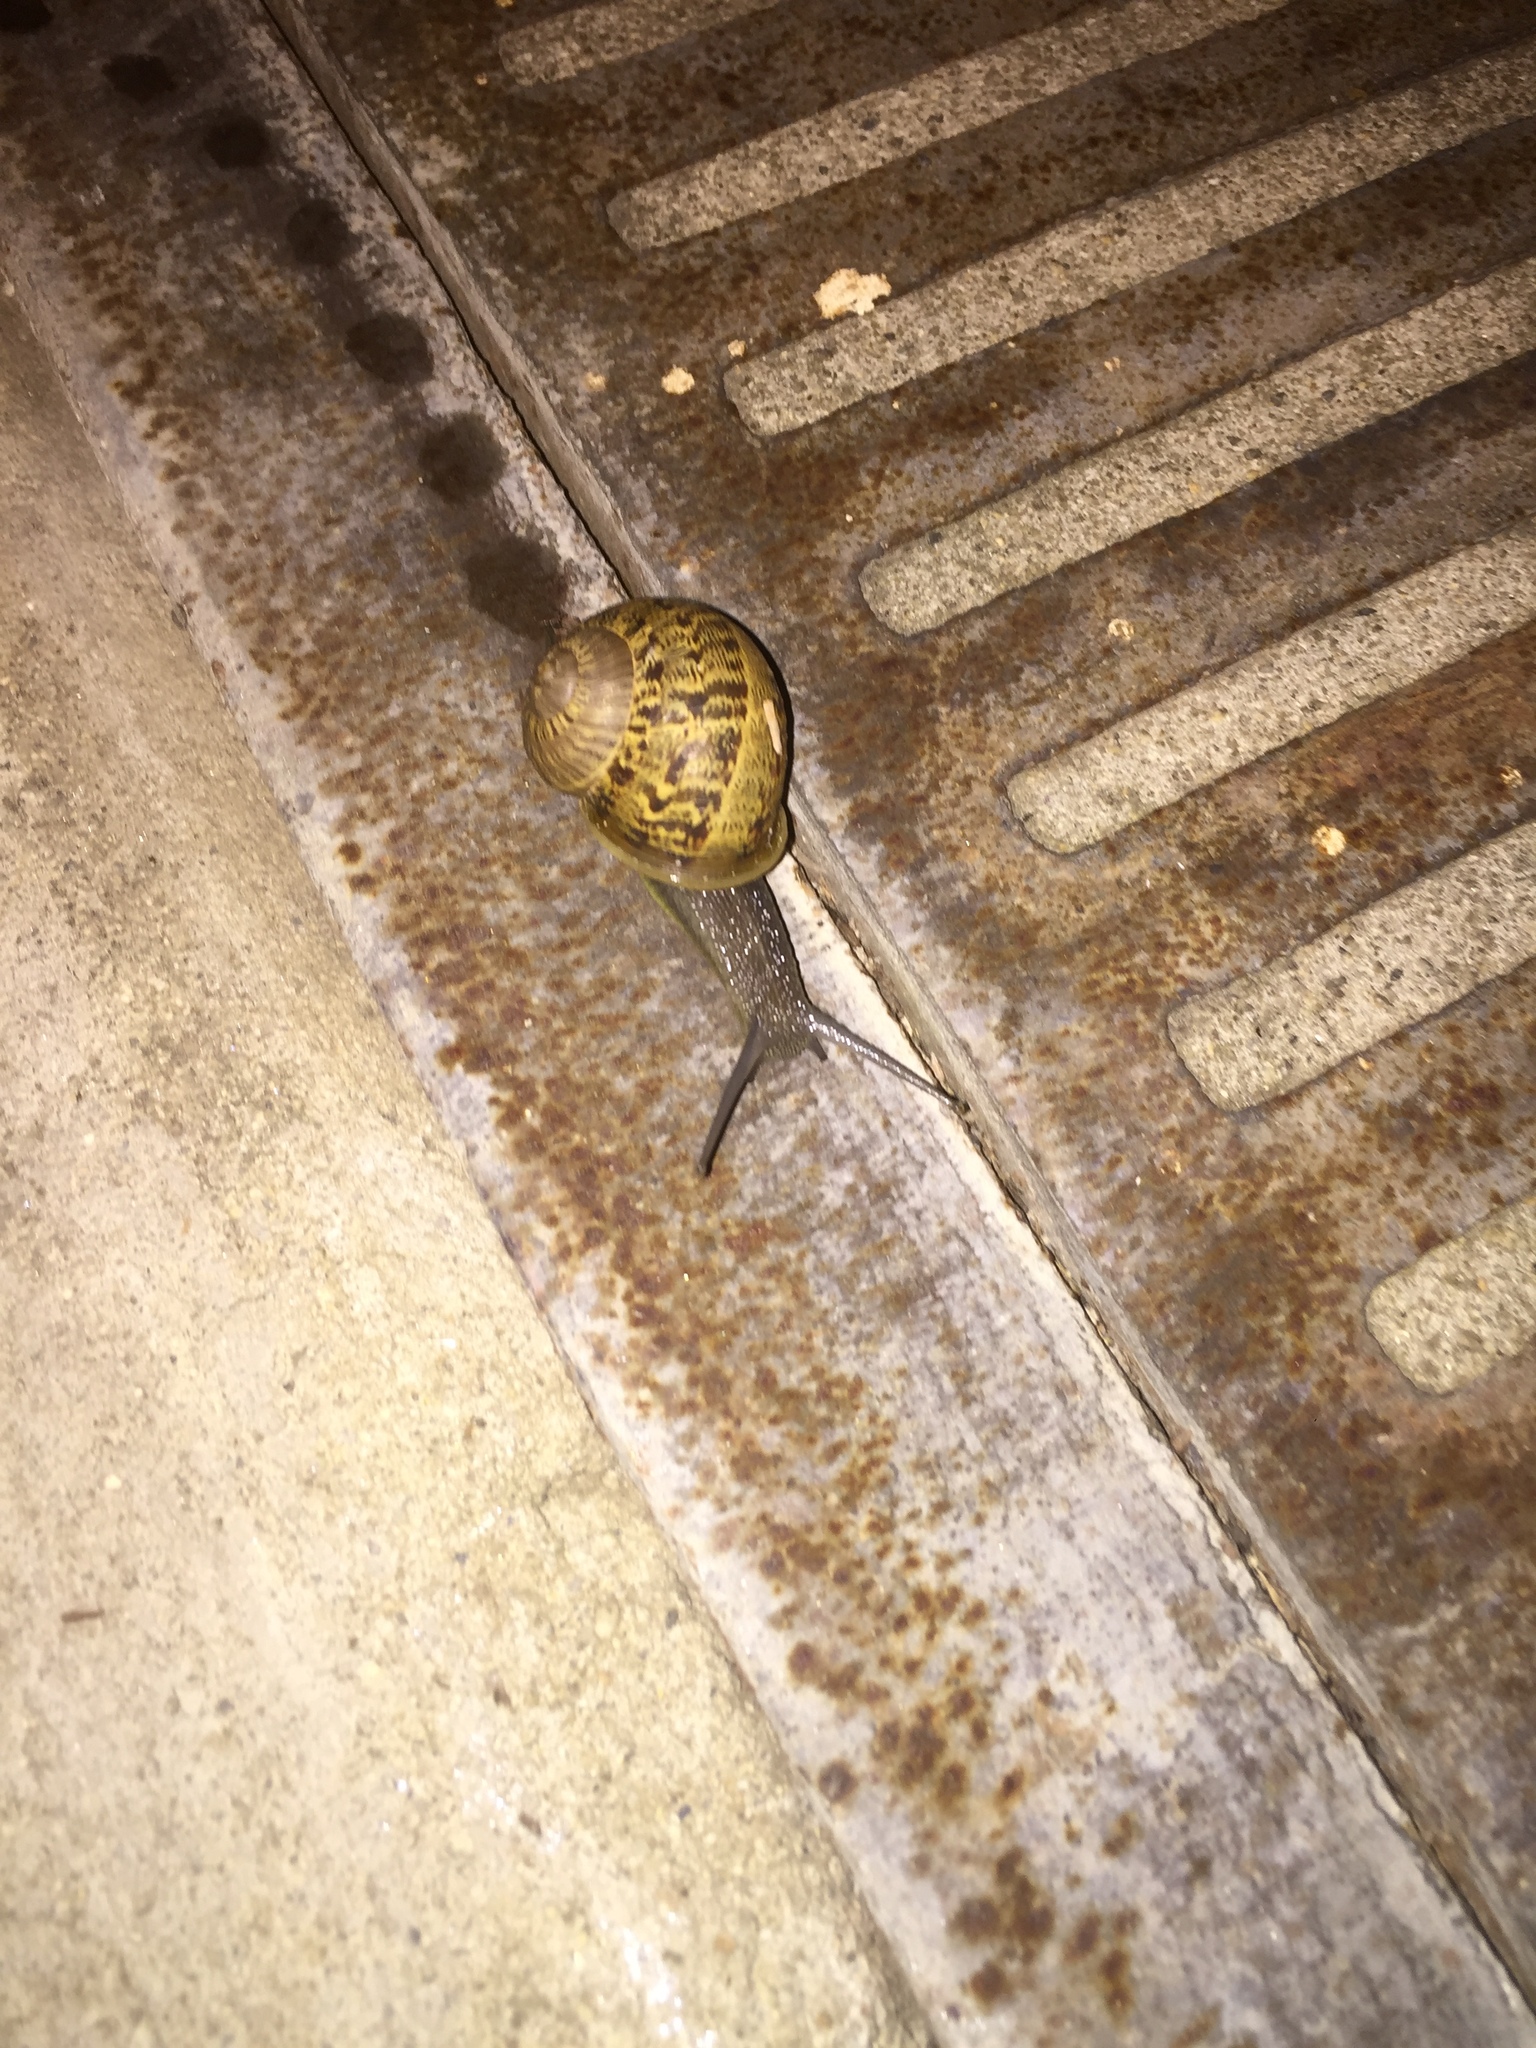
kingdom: Animalia
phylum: Mollusca
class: Gastropoda
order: Stylommatophora
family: Helicidae
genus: Cornu
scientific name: Cornu aspersum
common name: Brown garden snail
